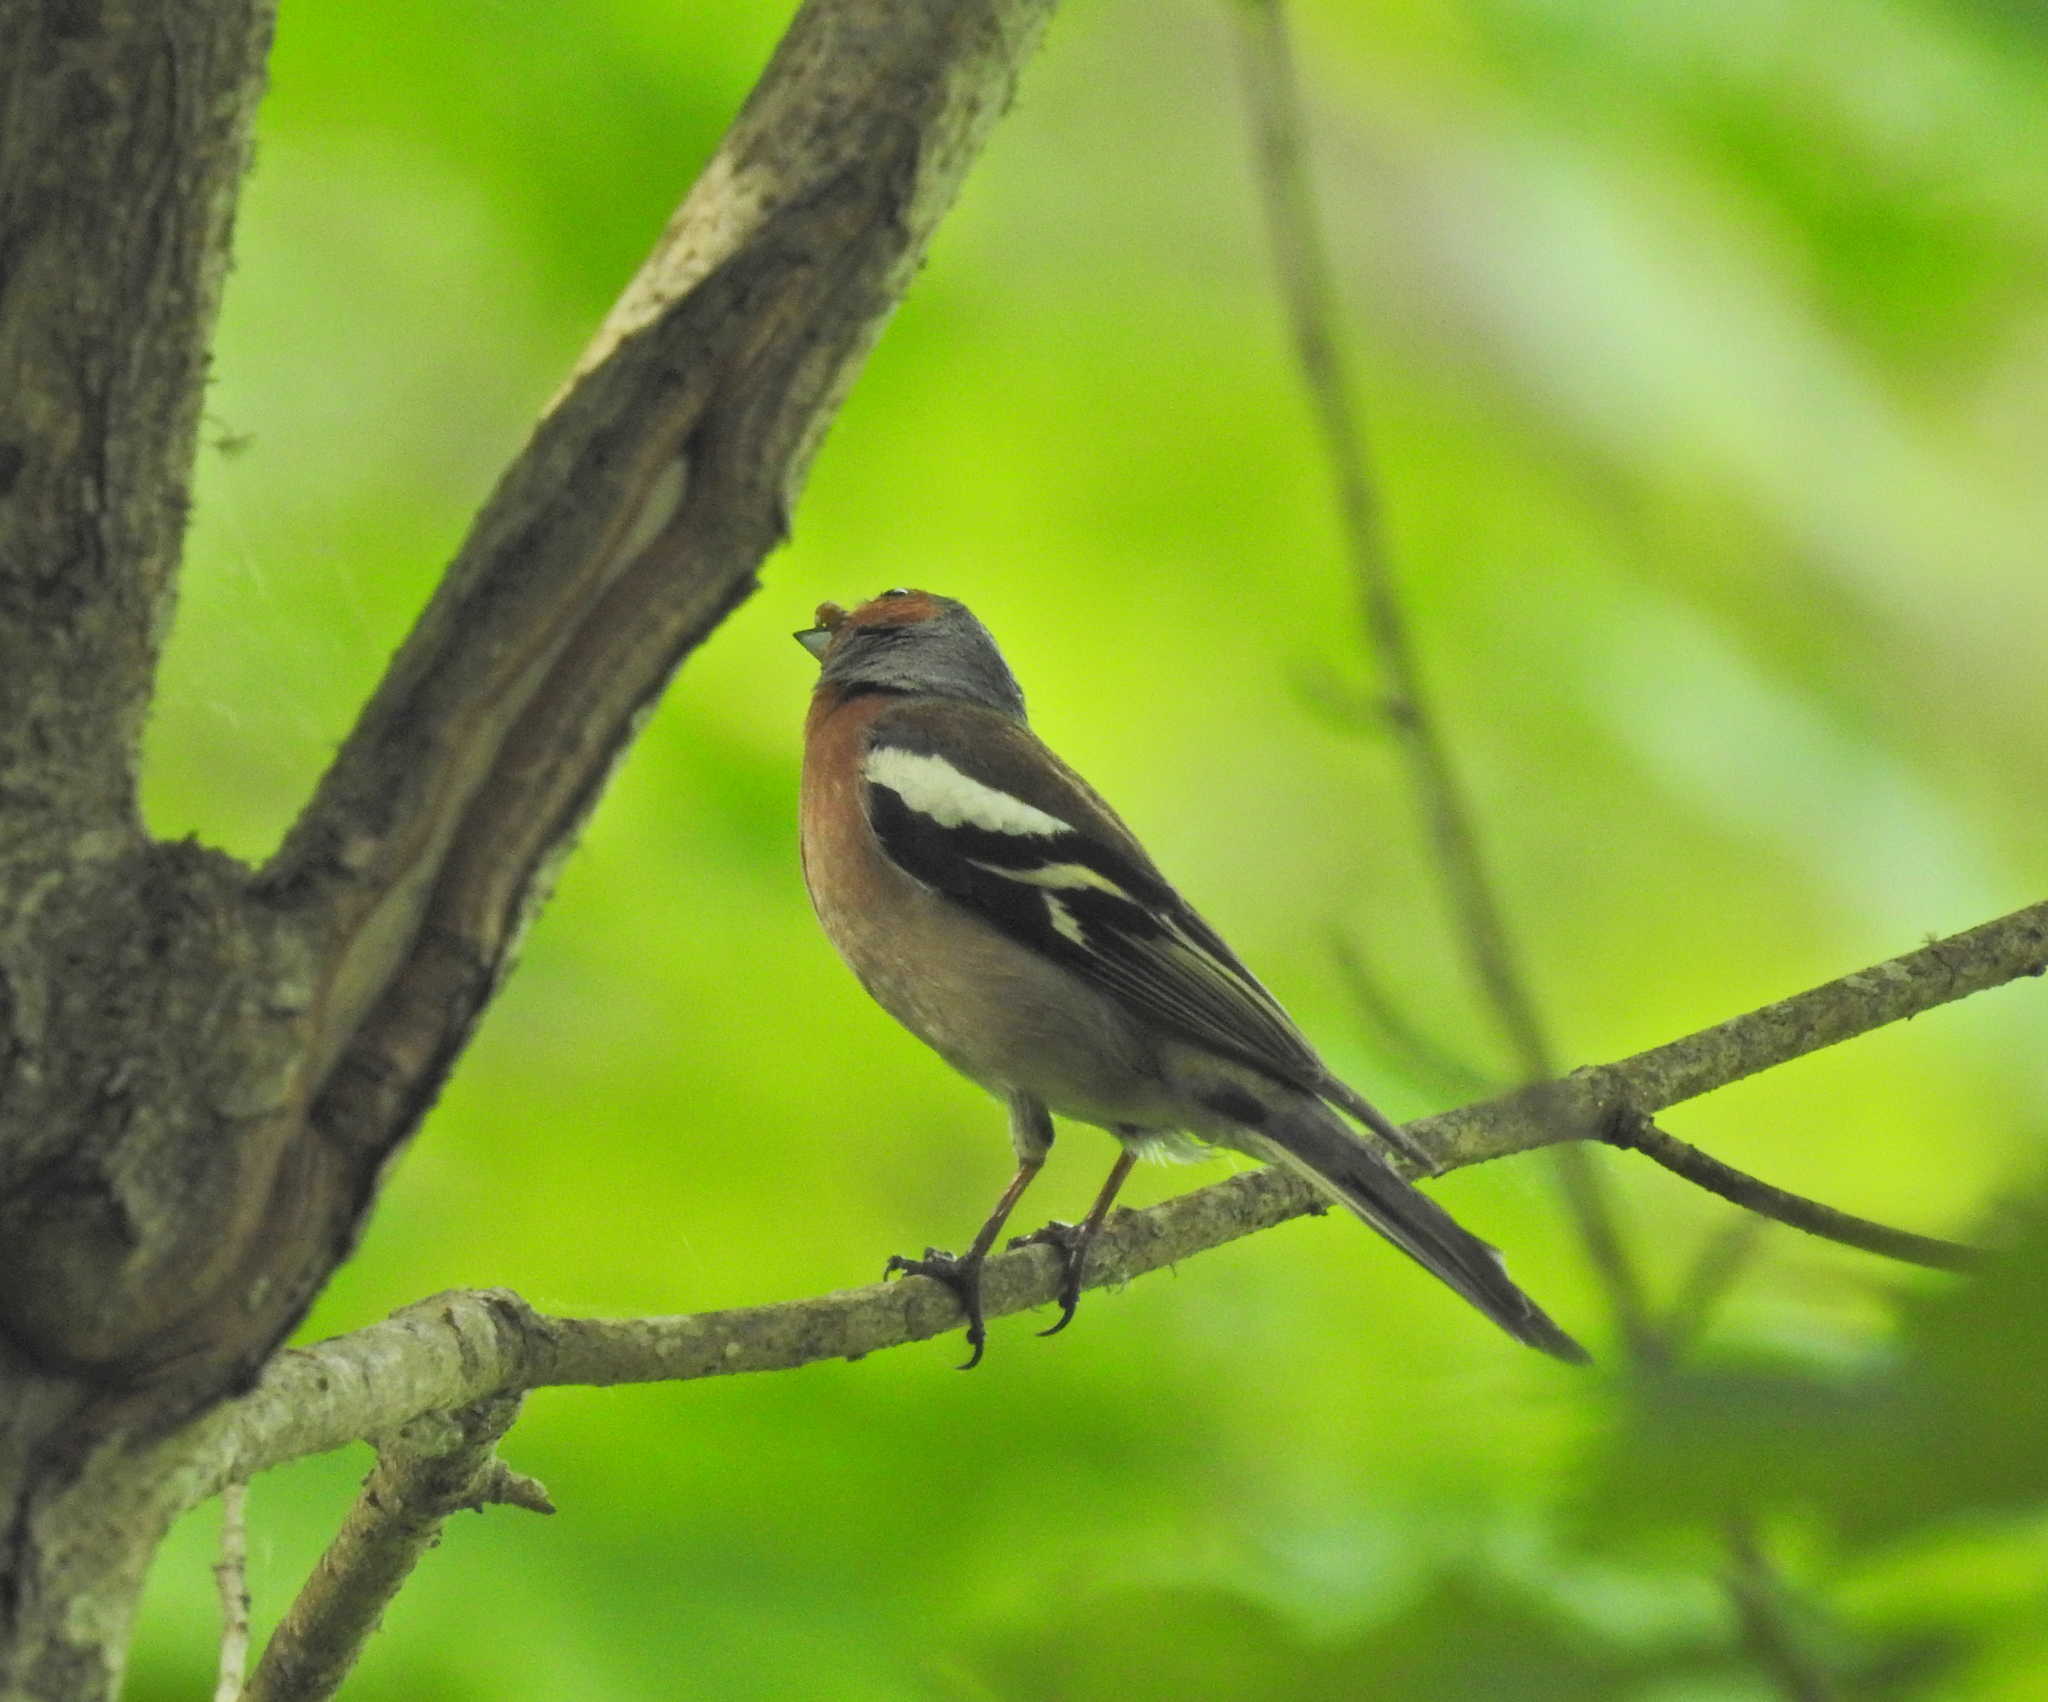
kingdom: Animalia
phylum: Chordata
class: Aves
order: Passeriformes
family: Fringillidae
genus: Fringilla
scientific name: Fringilla coelebs
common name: Common chaffinch
